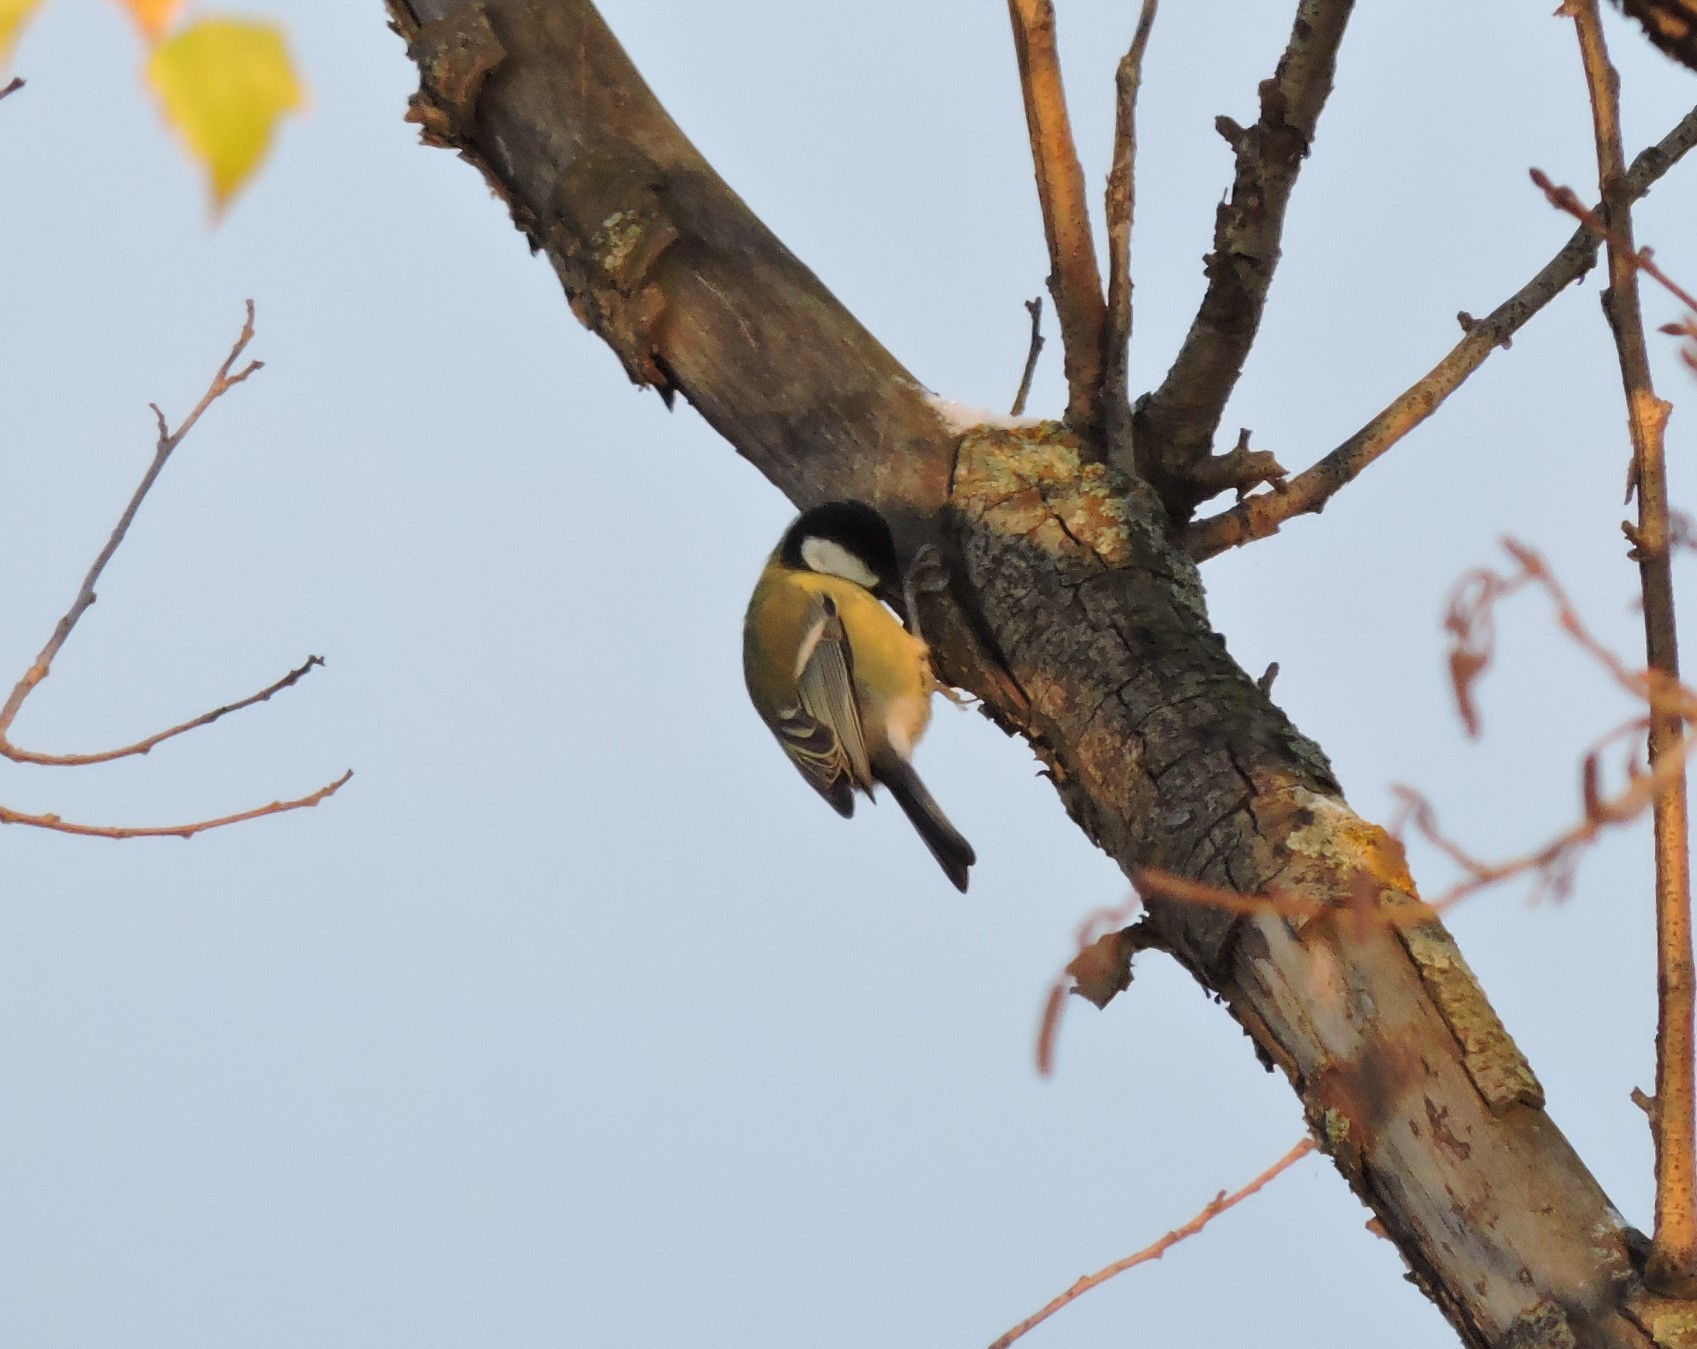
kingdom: Animalia
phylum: Chordata
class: Aves
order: Passeriformes
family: Paridae
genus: Parus
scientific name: Parus major
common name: Great tit
